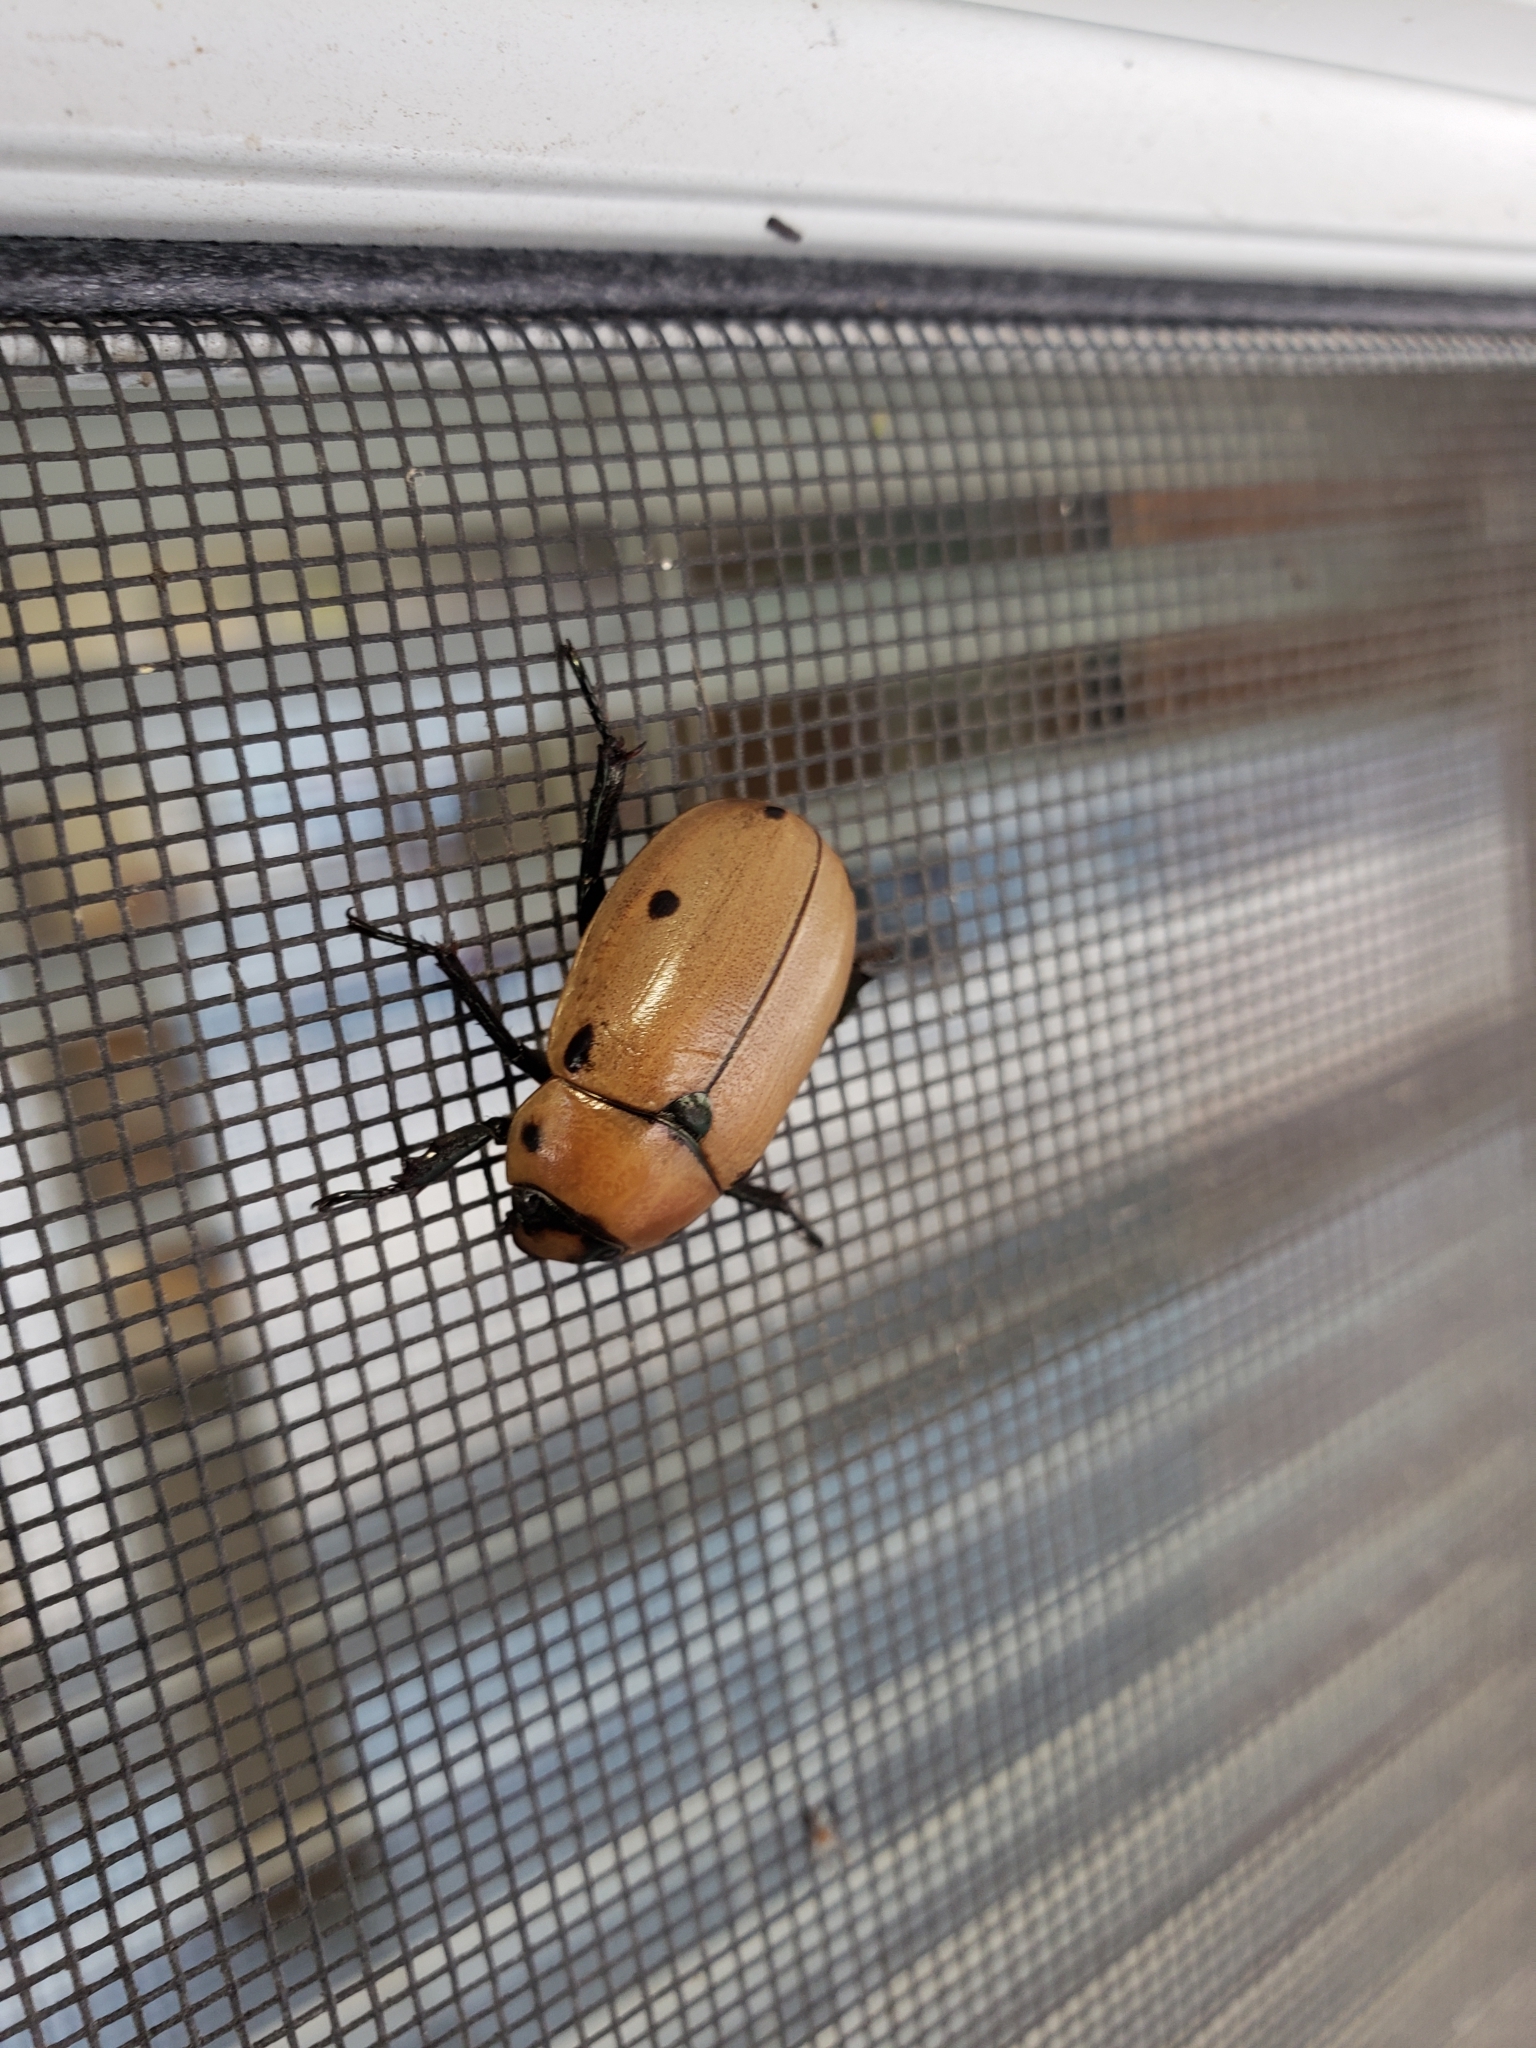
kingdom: Animalia
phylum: Arthropoda
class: Insecta
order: Coleoptera
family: Scarabaeidae
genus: Pelidnota
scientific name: Pelidnota punctata
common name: Grapevine beetle
